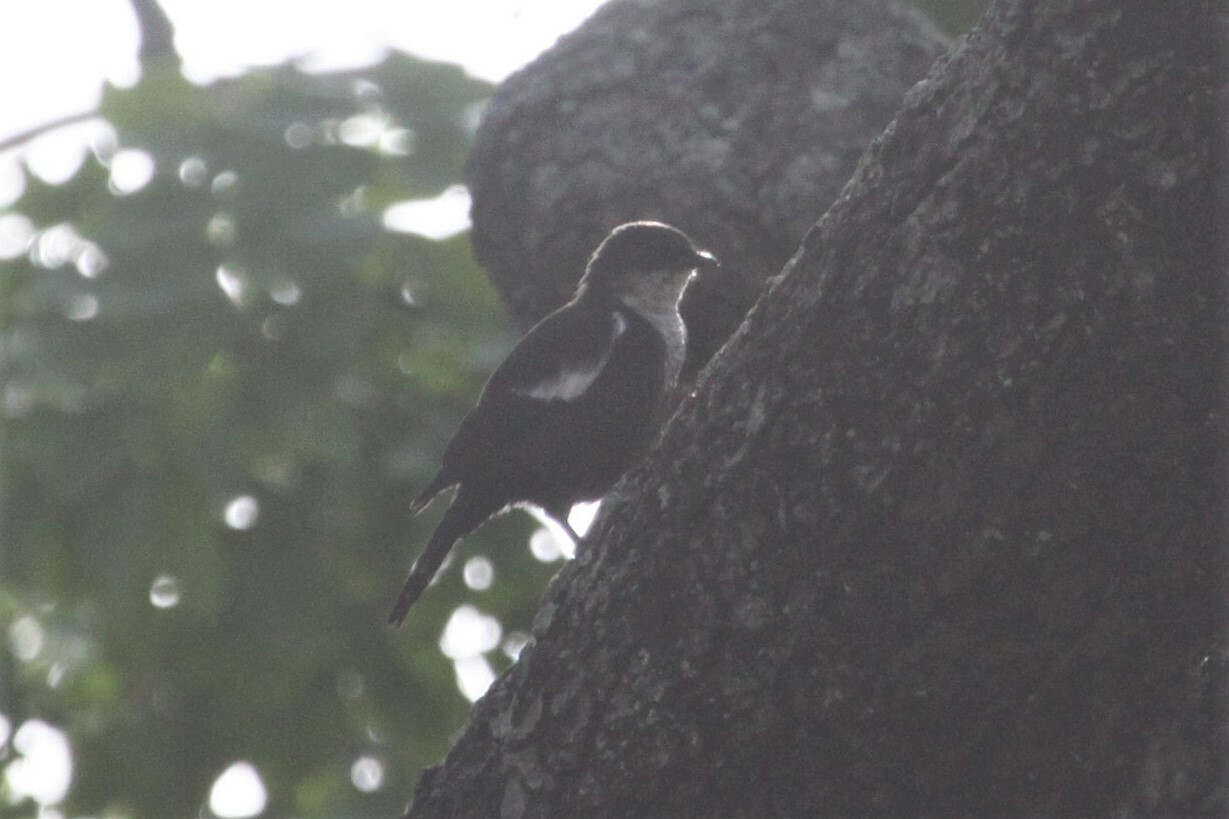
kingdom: Animalia
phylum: Chordata
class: Aves
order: Passeriformes
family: Muscicapidae
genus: Pentholaea
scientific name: Pentholaea arnotti
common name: Arnot's chat
